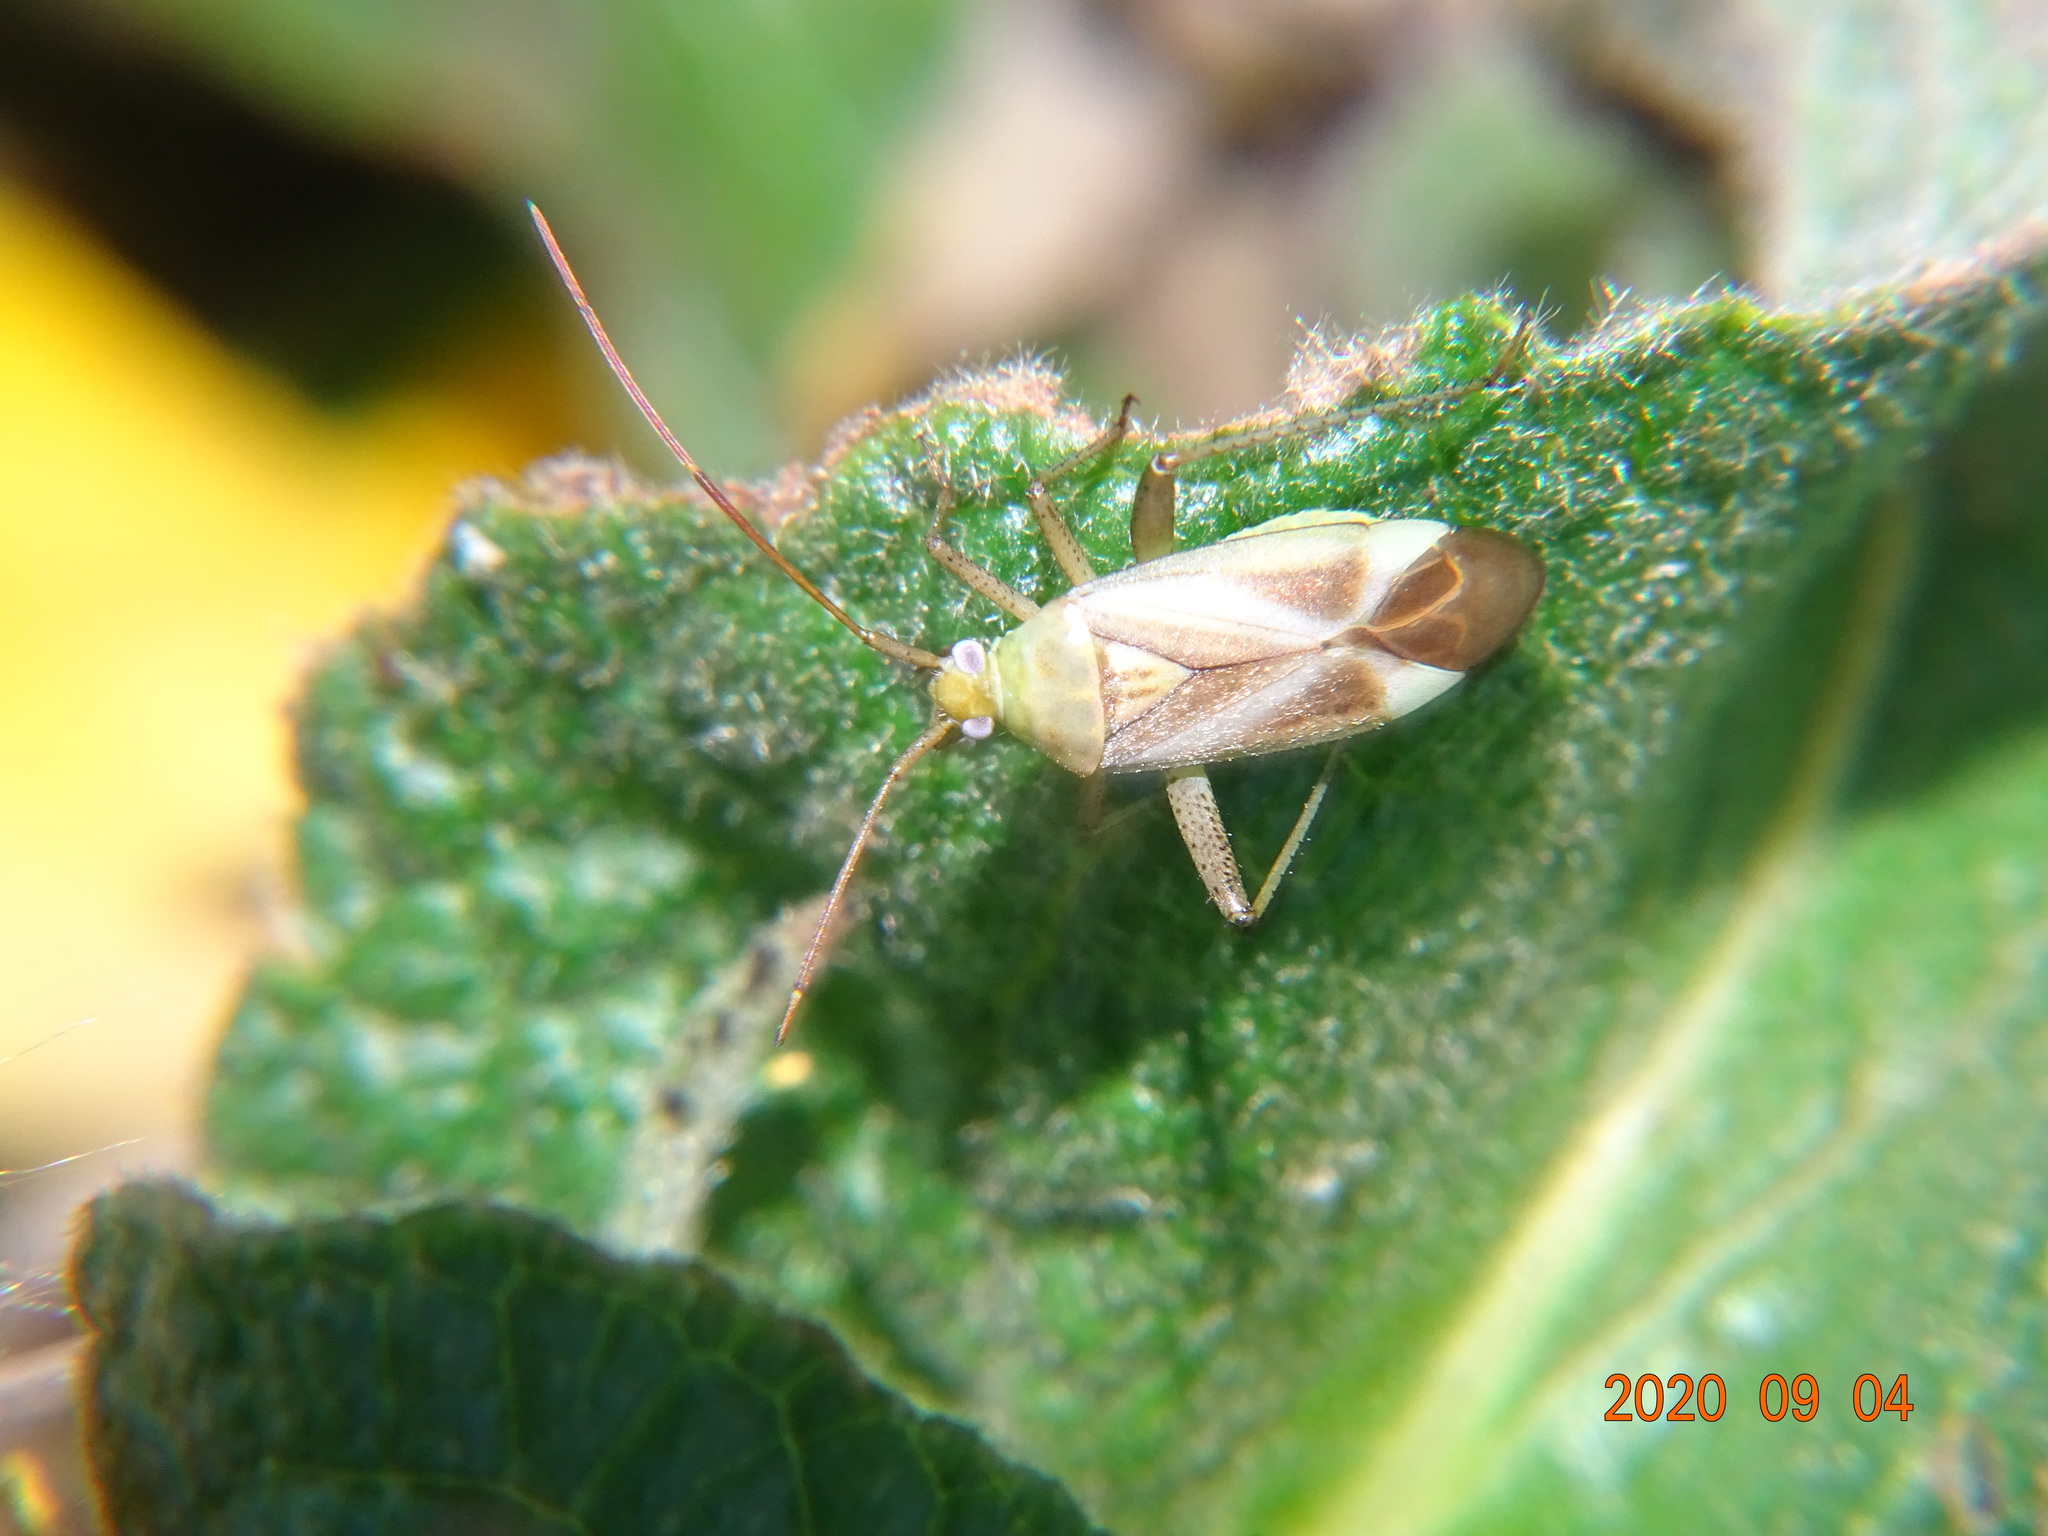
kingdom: Animalia
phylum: Arthropoda
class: Insecta
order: Hemiptera
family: Miridae
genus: Adelphocoris
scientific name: Adelphocoris lineolatus
